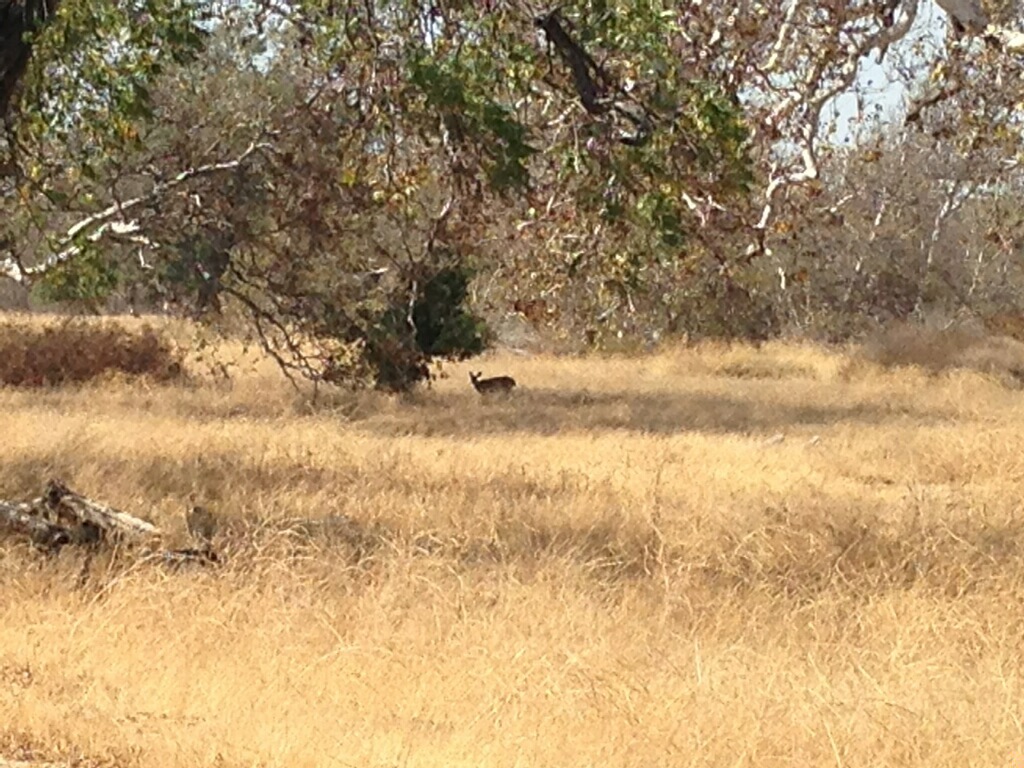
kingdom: Animalia
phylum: Chordata
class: Mammalia
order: Artiodactyla
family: Cervidae
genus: Odocoileus
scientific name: Odocoileus hemionus
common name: Mule deer
